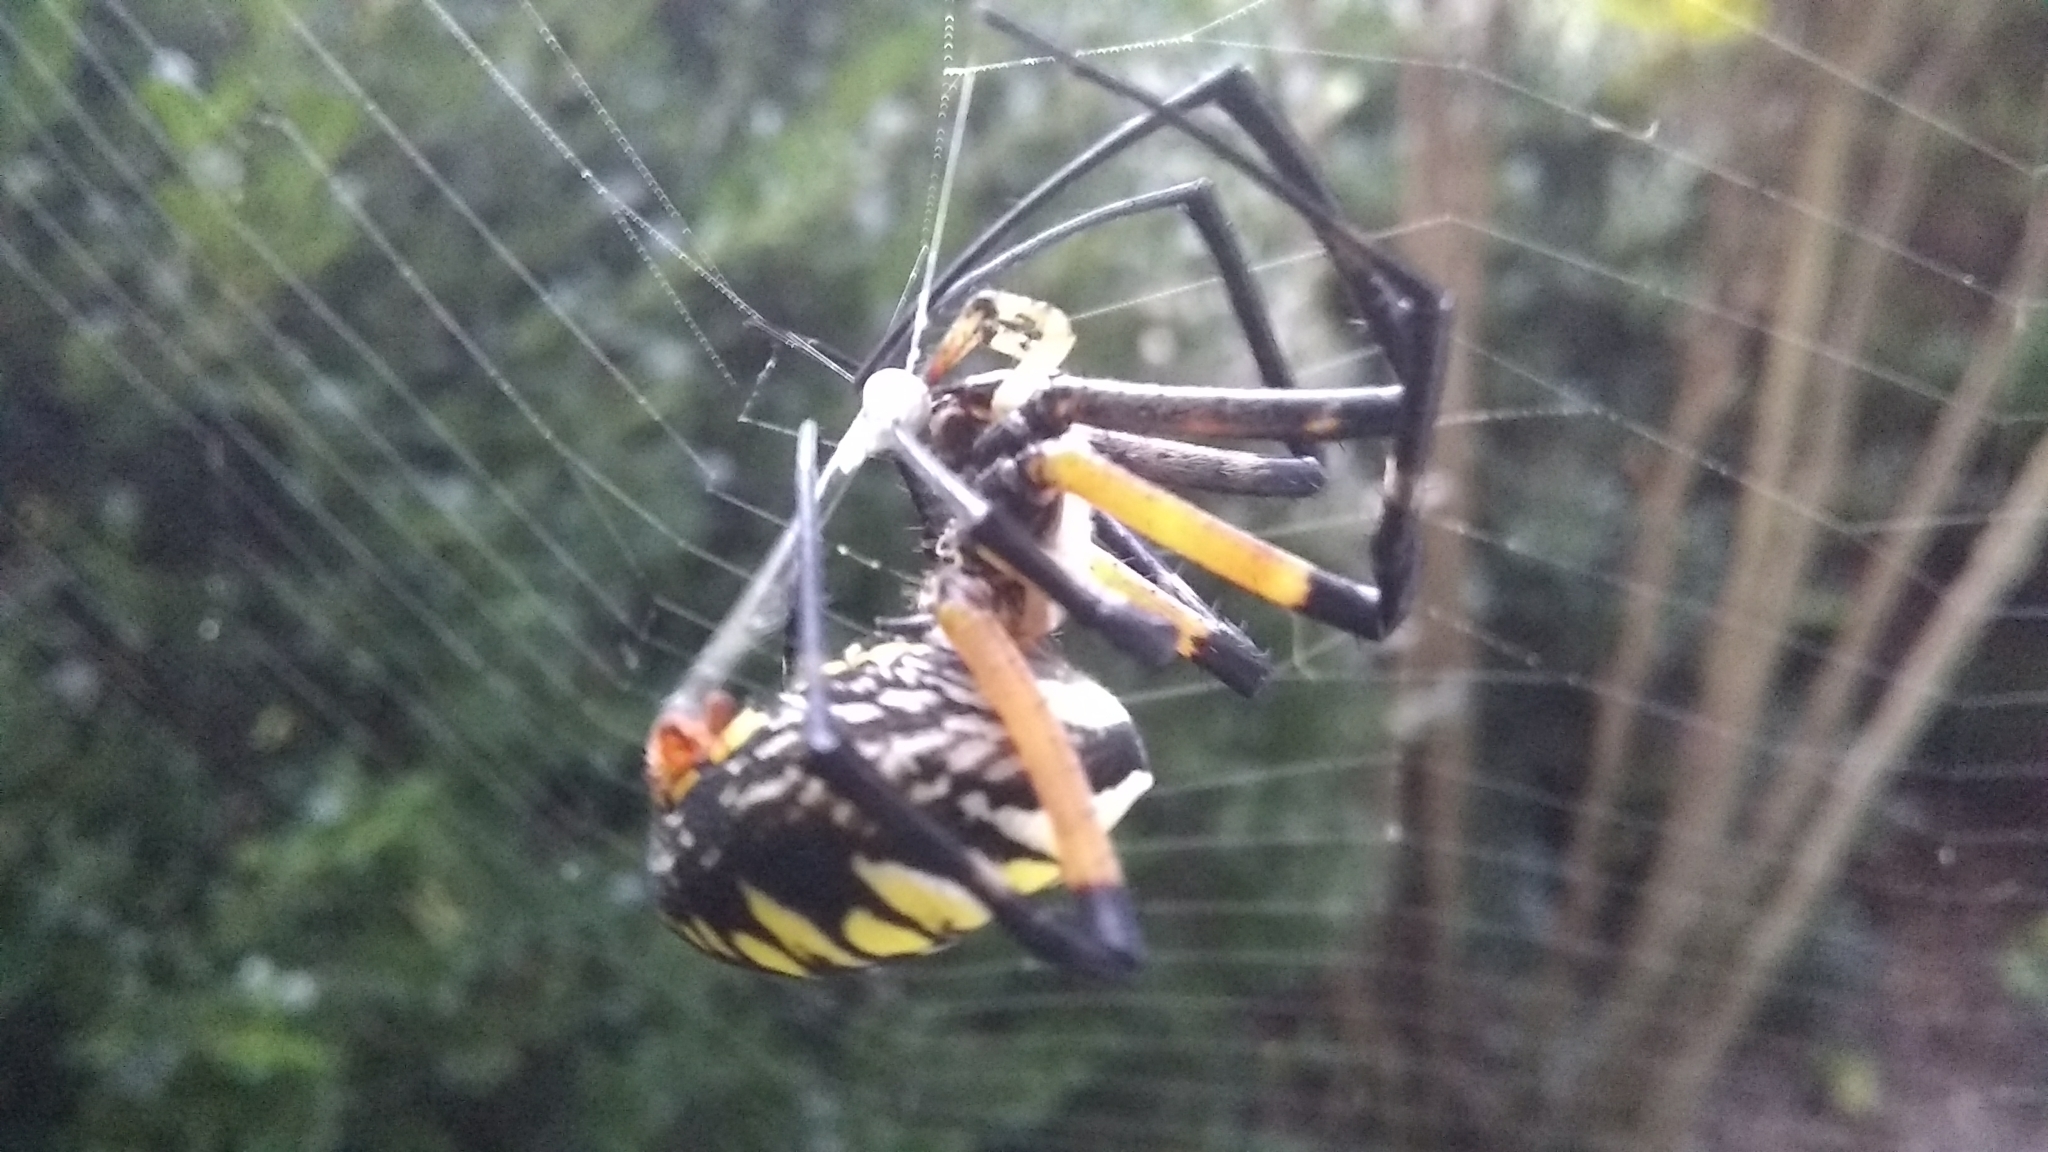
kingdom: Animalia
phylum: Arthropoda
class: Arachnida
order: Araneae
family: Araneidae
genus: Argiope
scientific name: Argiope aurantia
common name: Orb weavers
